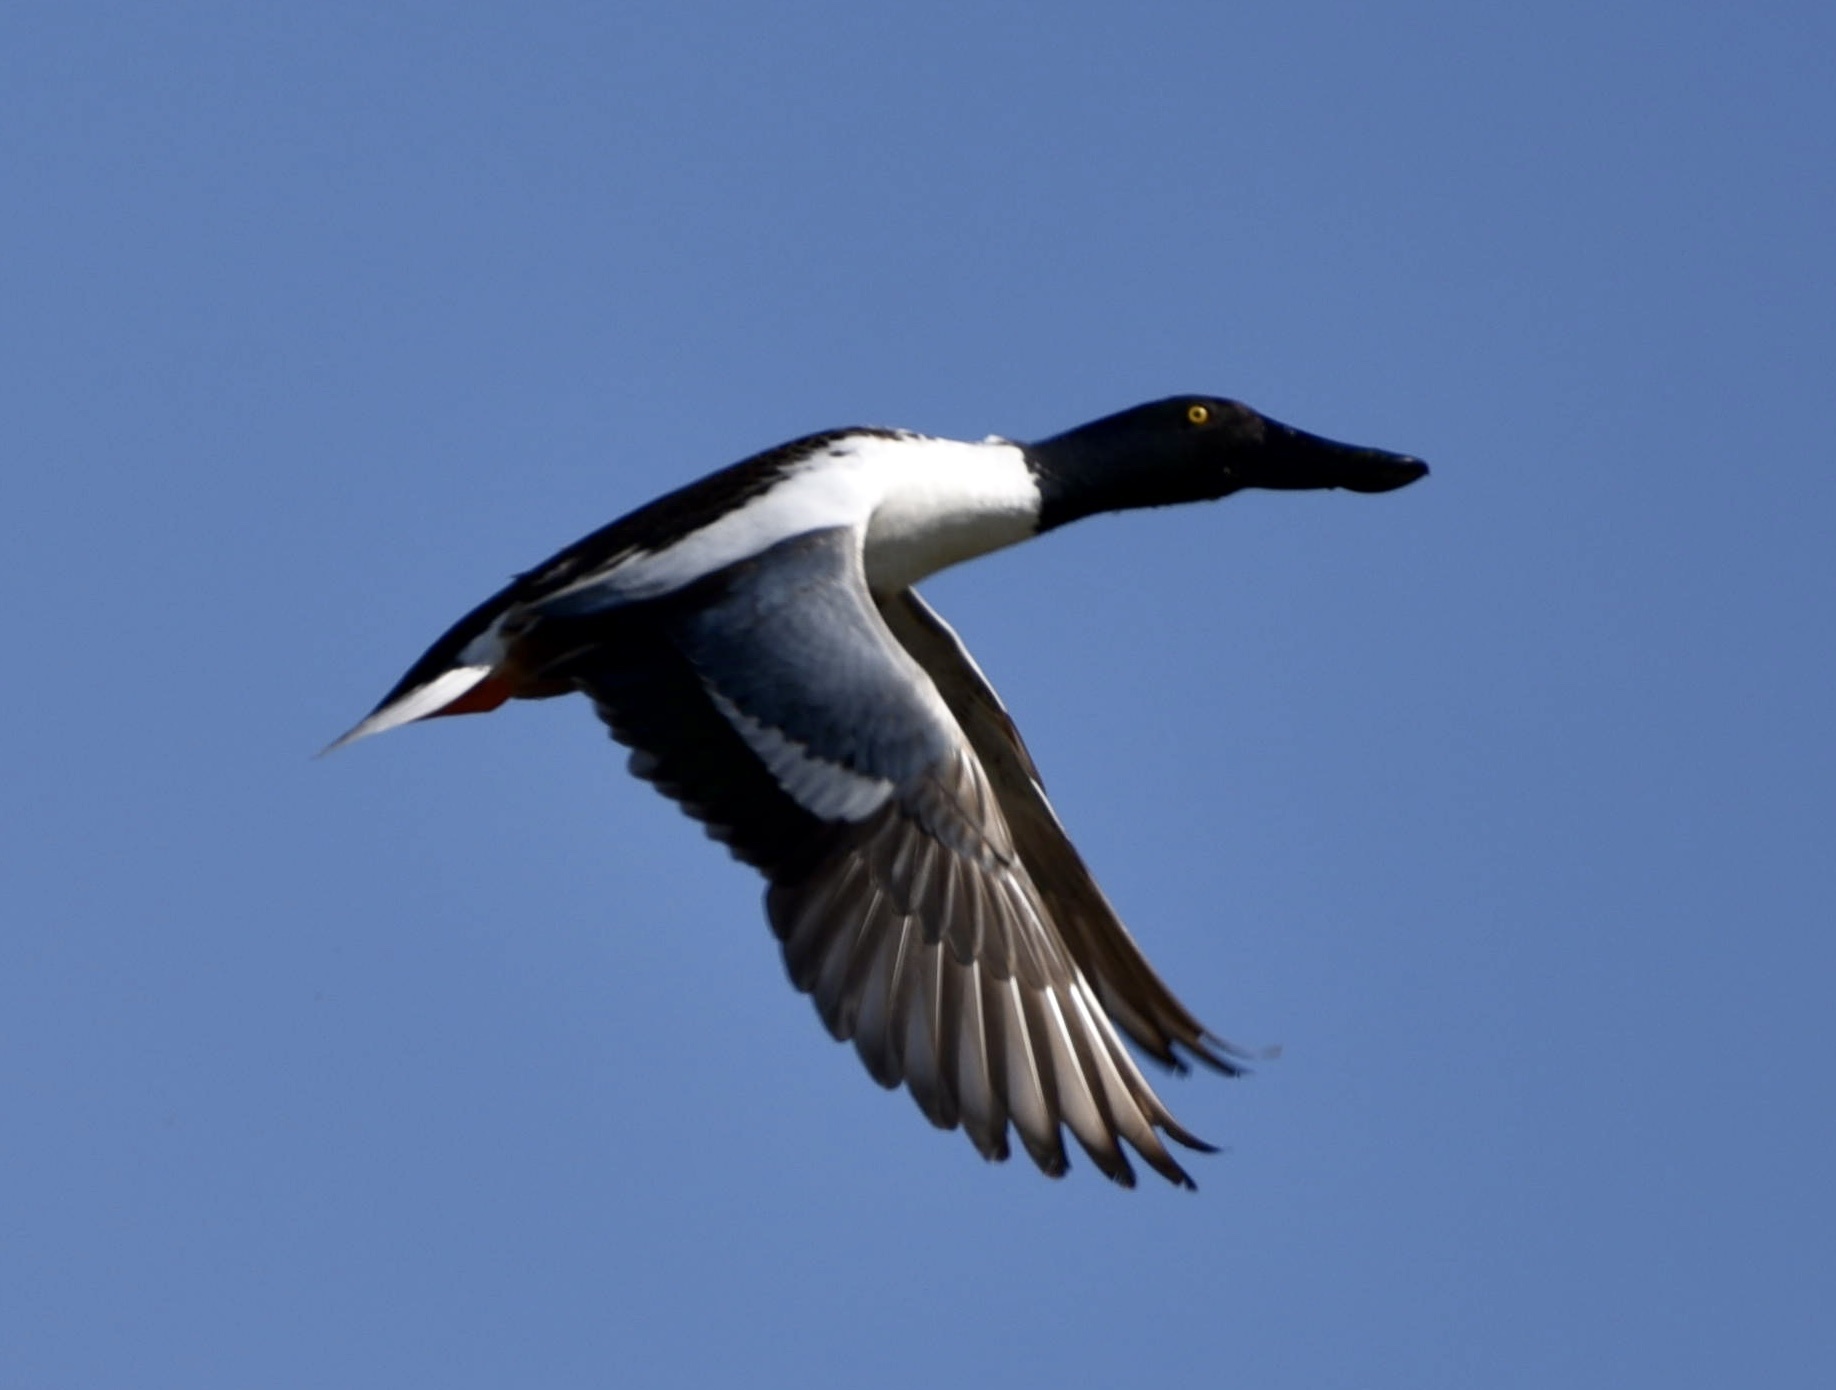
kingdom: Animalia
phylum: Chordata
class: Aves
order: Anseriformes
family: Anatidae
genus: Spatula
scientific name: Spatula clypeata
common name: Northern shoveler
